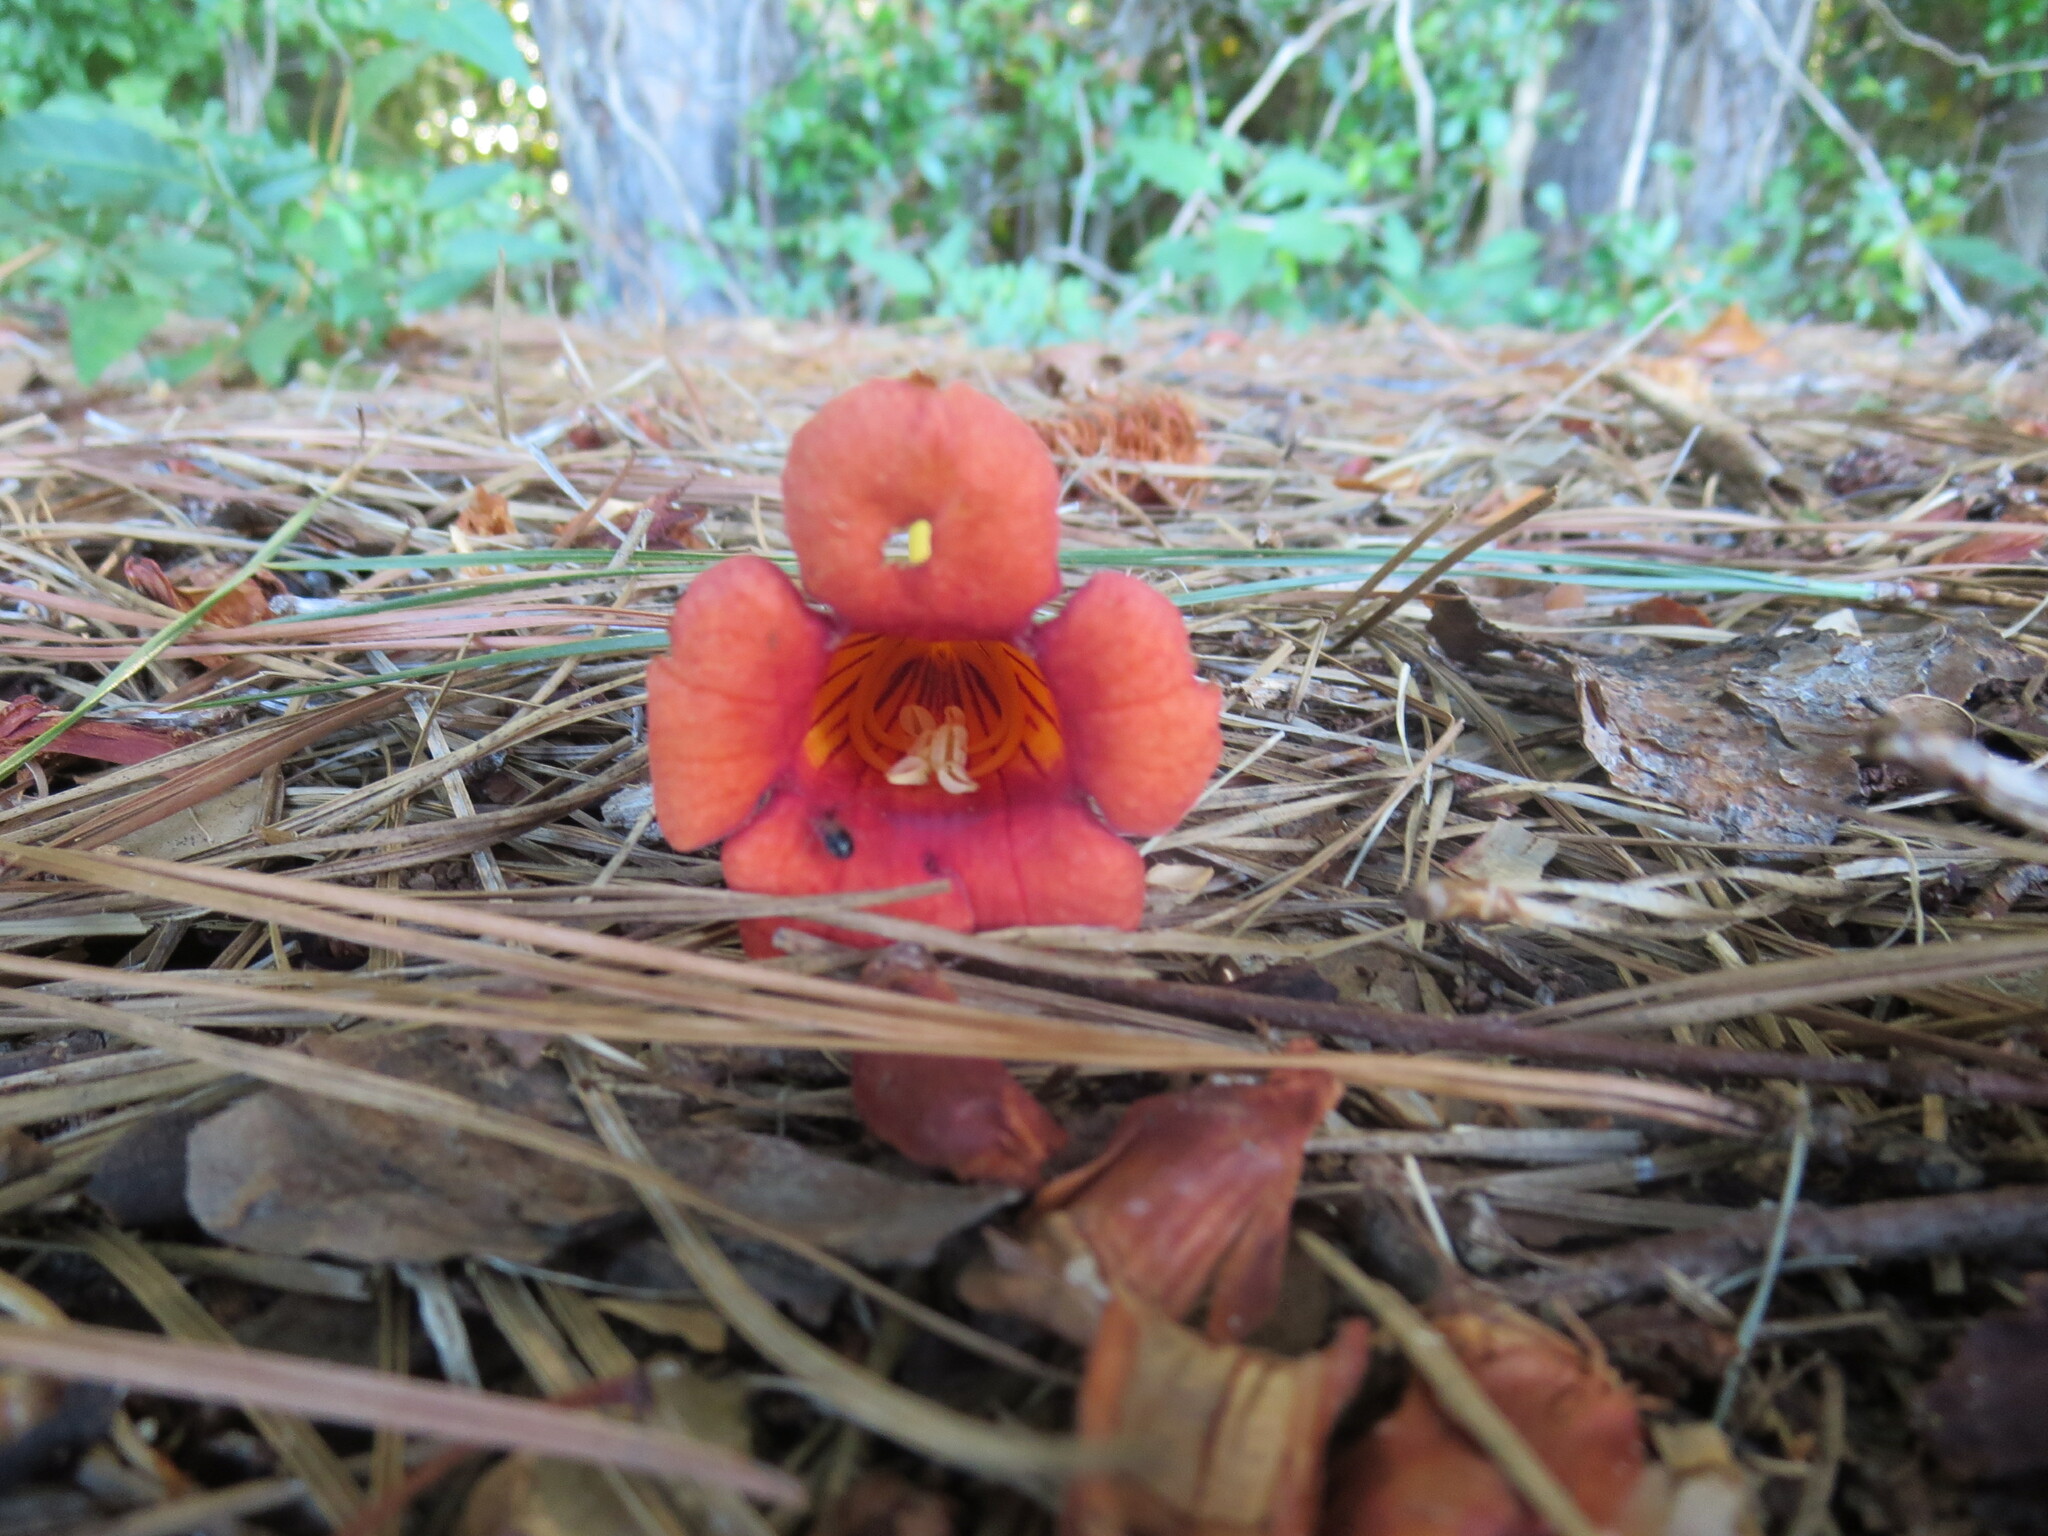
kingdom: Plantae
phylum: Tracheophyta
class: Magnoliopsida
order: Lamiales
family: Bignoniaceae
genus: Campsis
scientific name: Campsis radicans
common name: Trumpet-creeper
